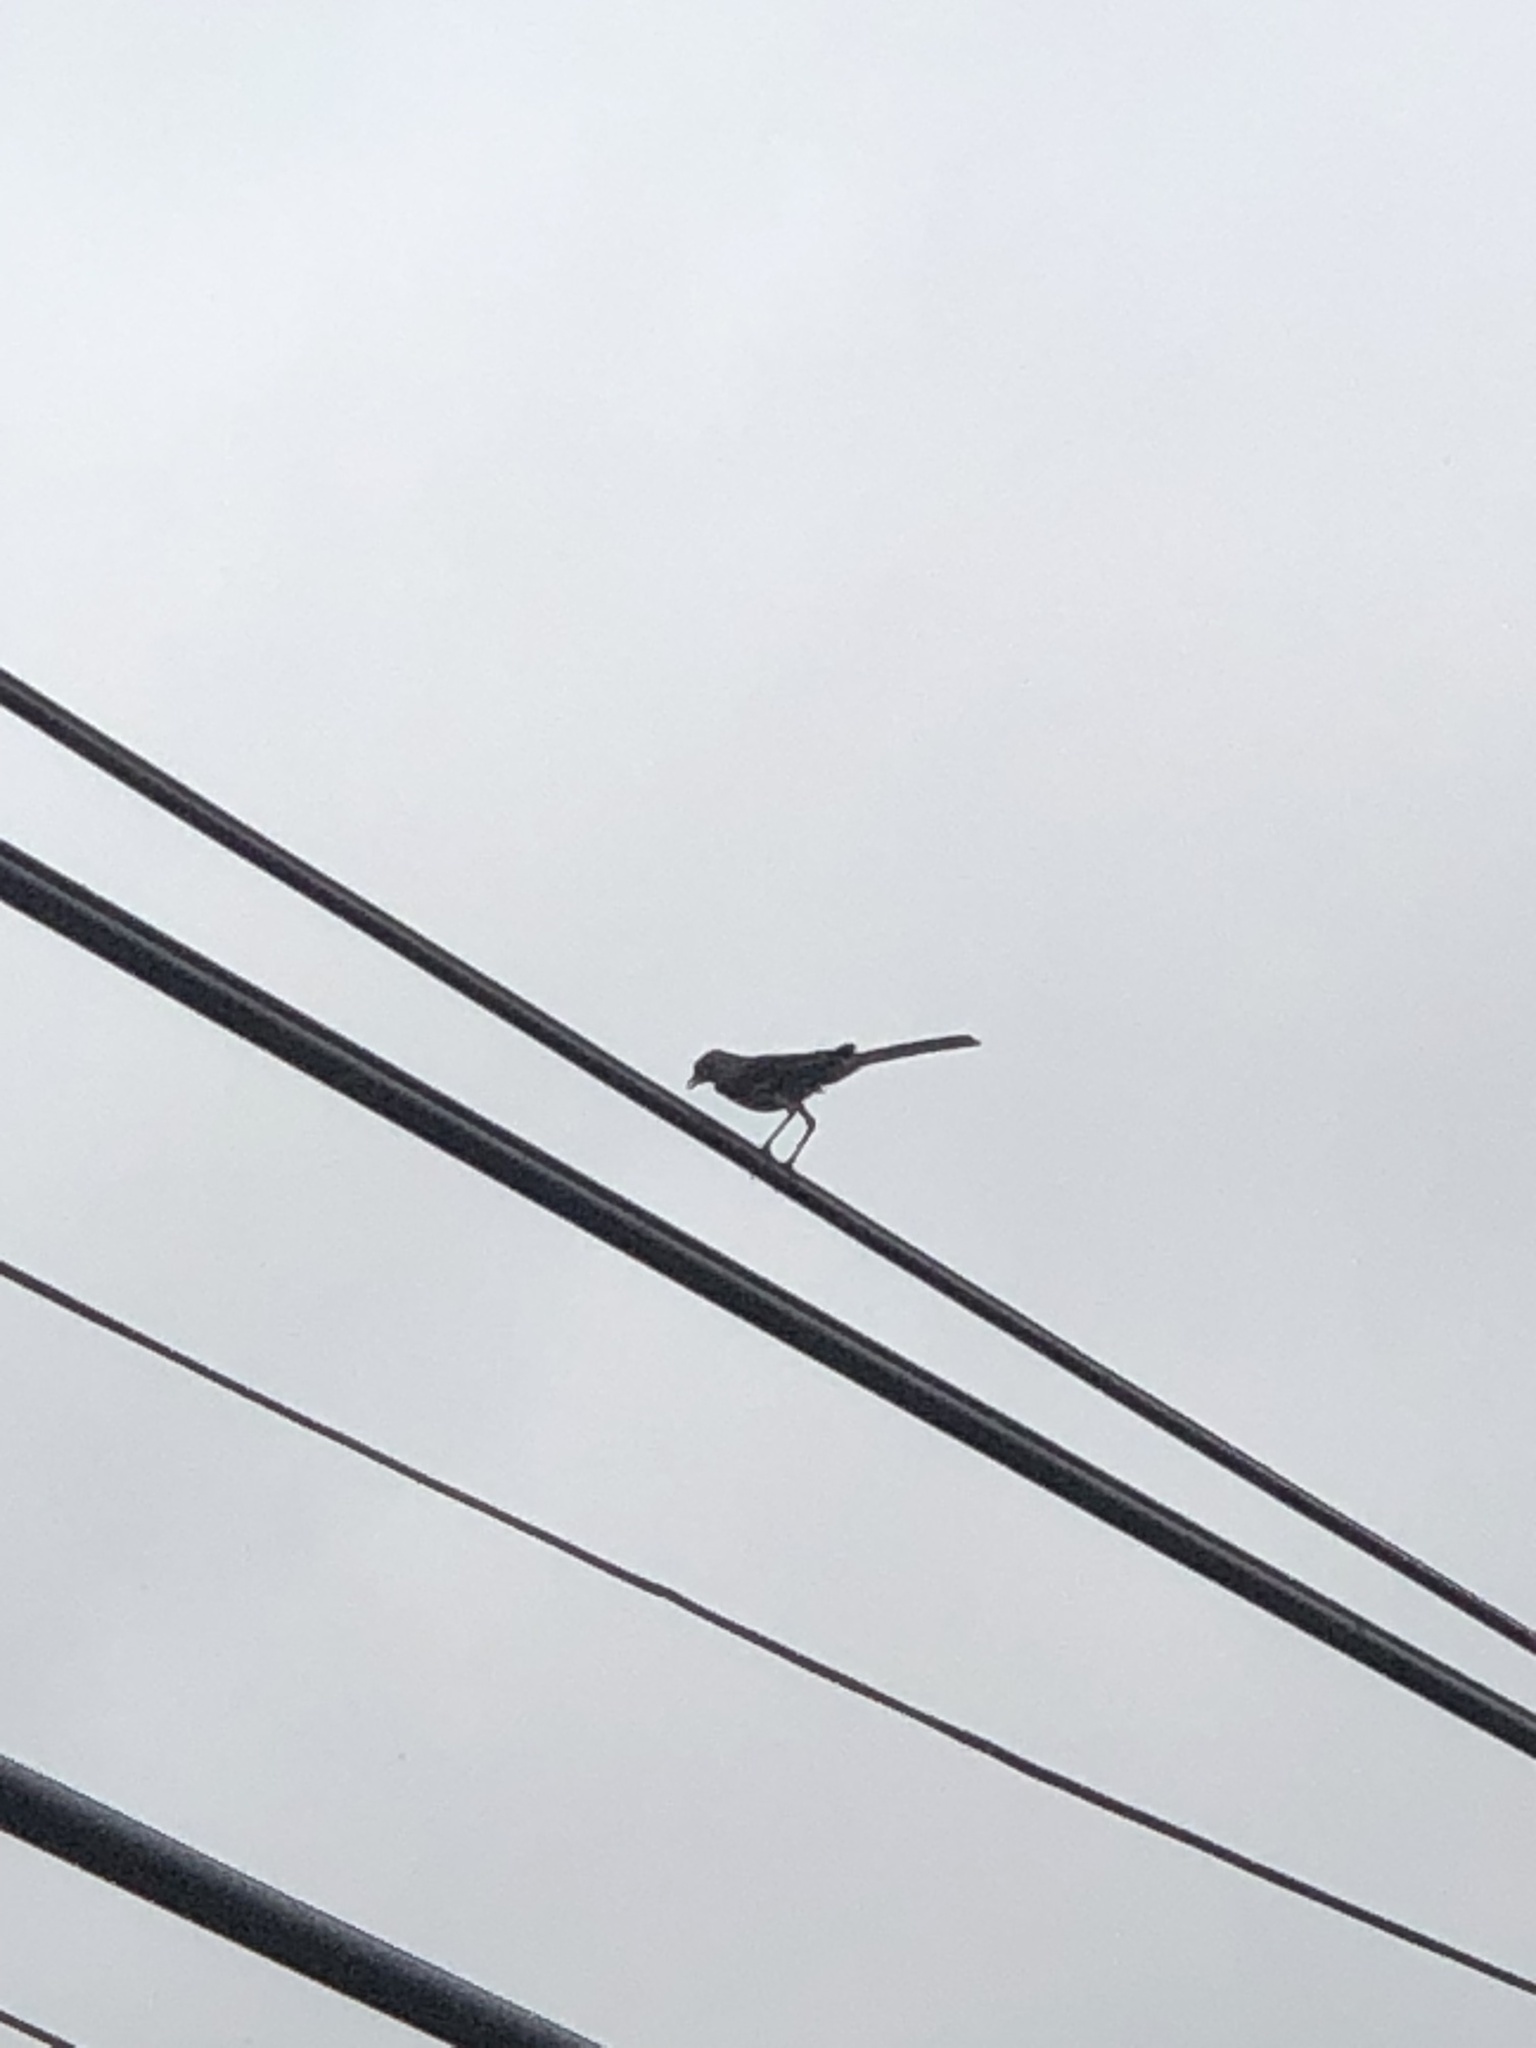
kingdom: Animalia
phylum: Chordata
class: Aves
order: Passeriformes
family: Mimidae
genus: Mimus
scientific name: Mimus polyglottos
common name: Northern mockingbird
